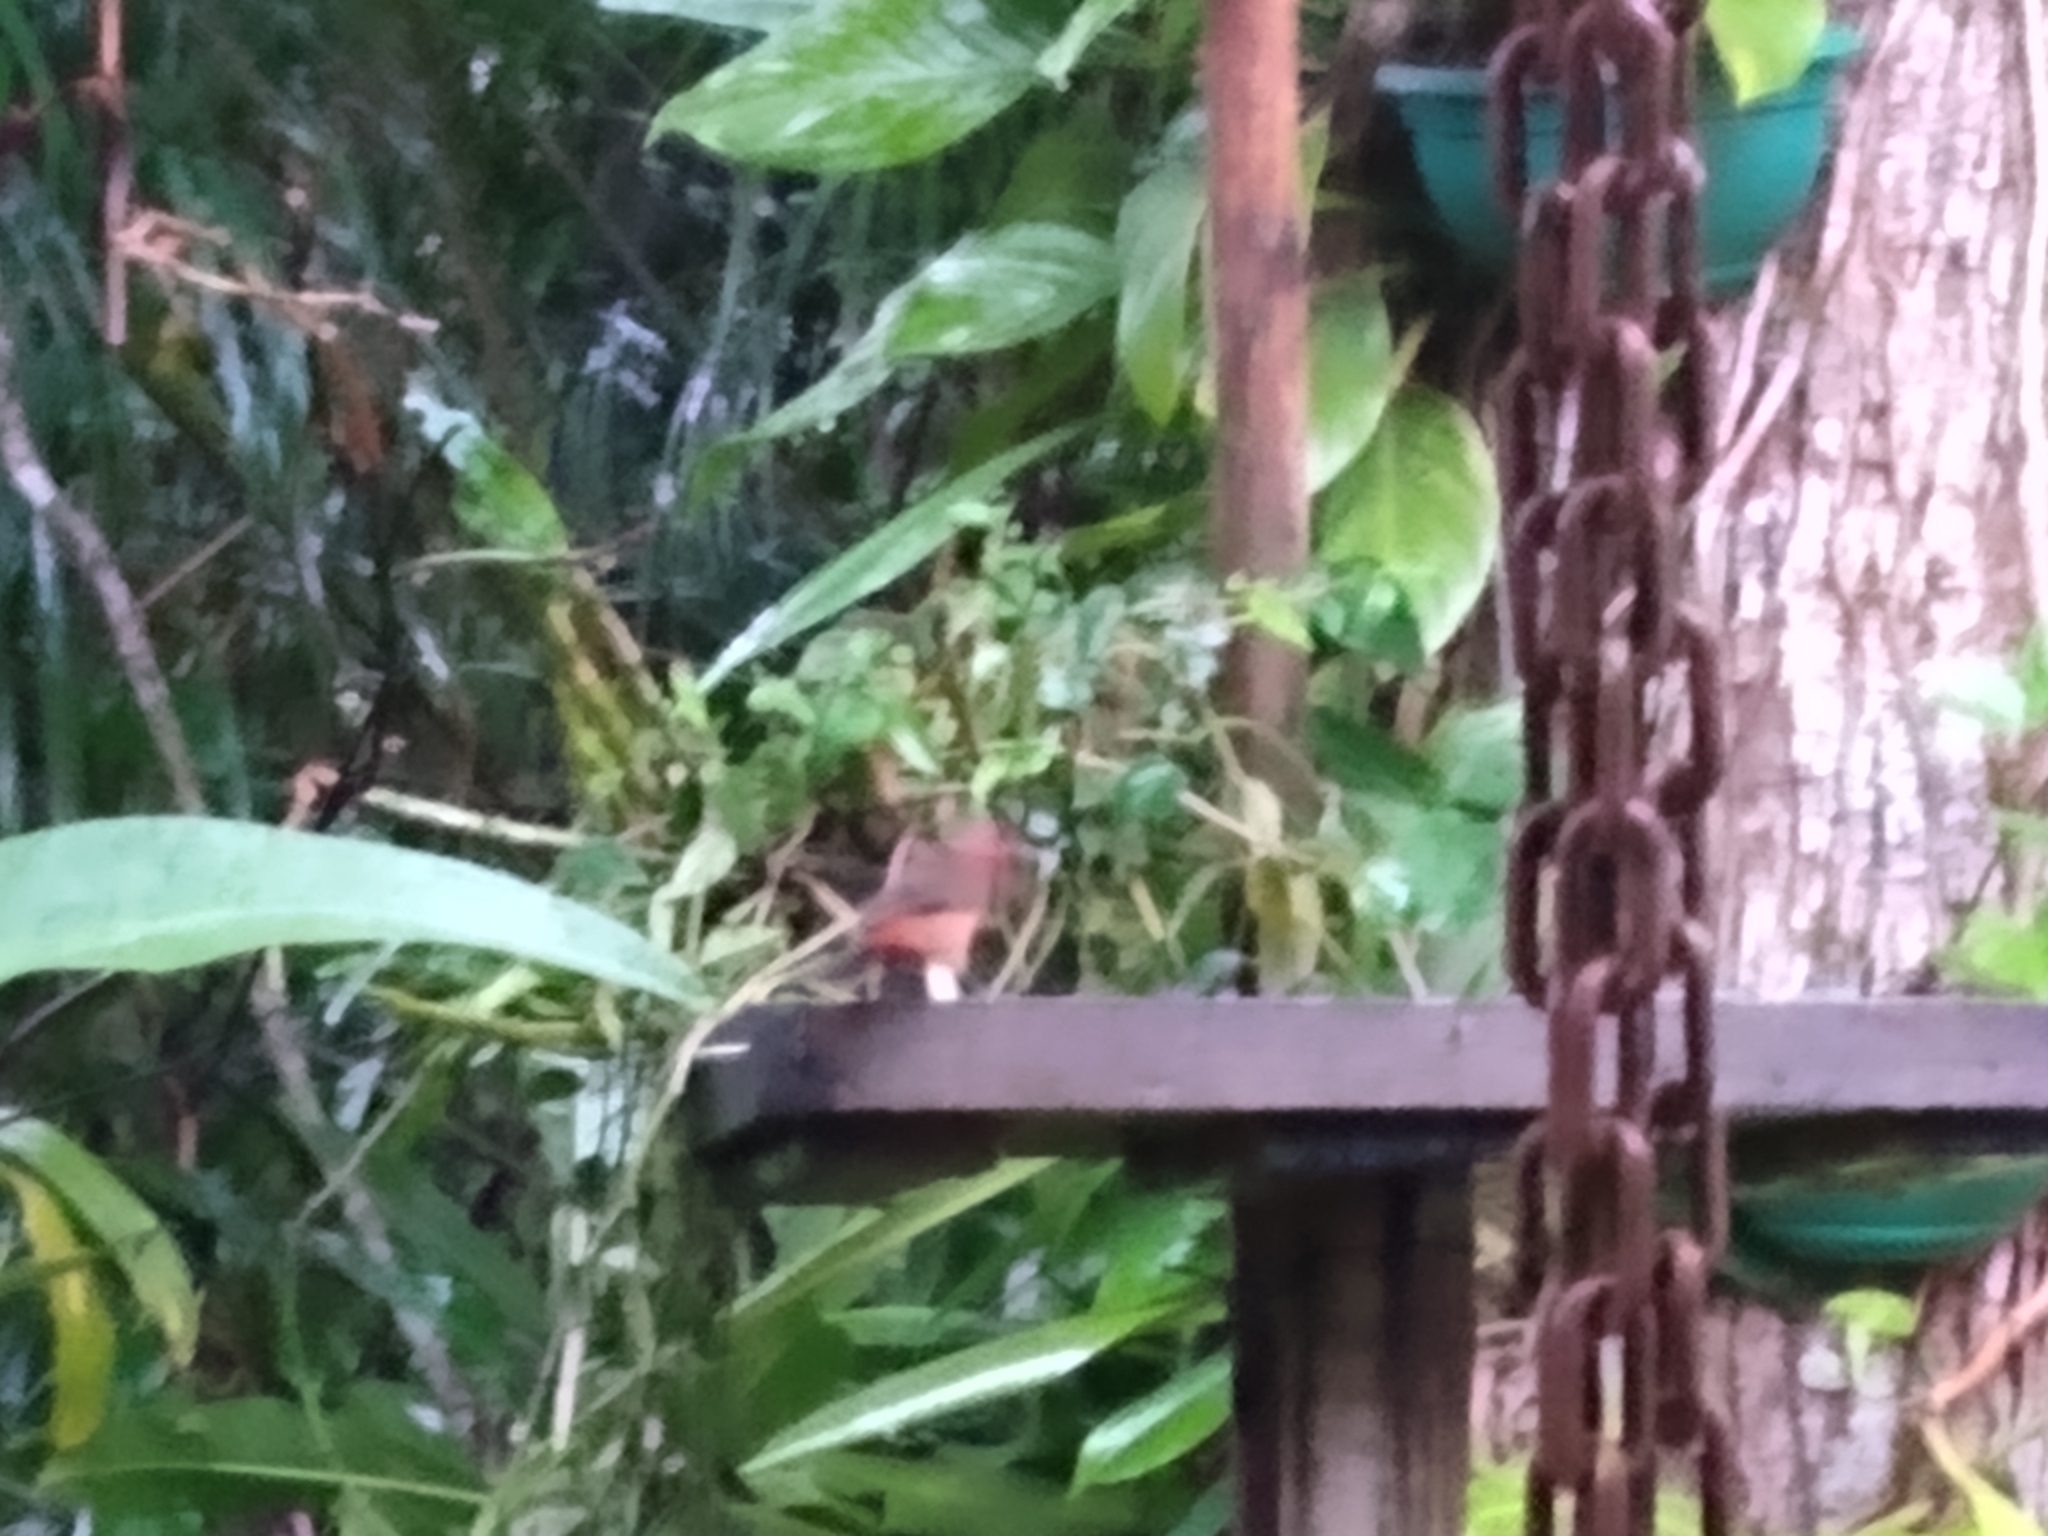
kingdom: Animalia
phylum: Chordata
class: Aves
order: Passeriformes
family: Cardinalidae
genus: Habia
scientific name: Habia rubica
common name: Red-crowned ant-tanager
